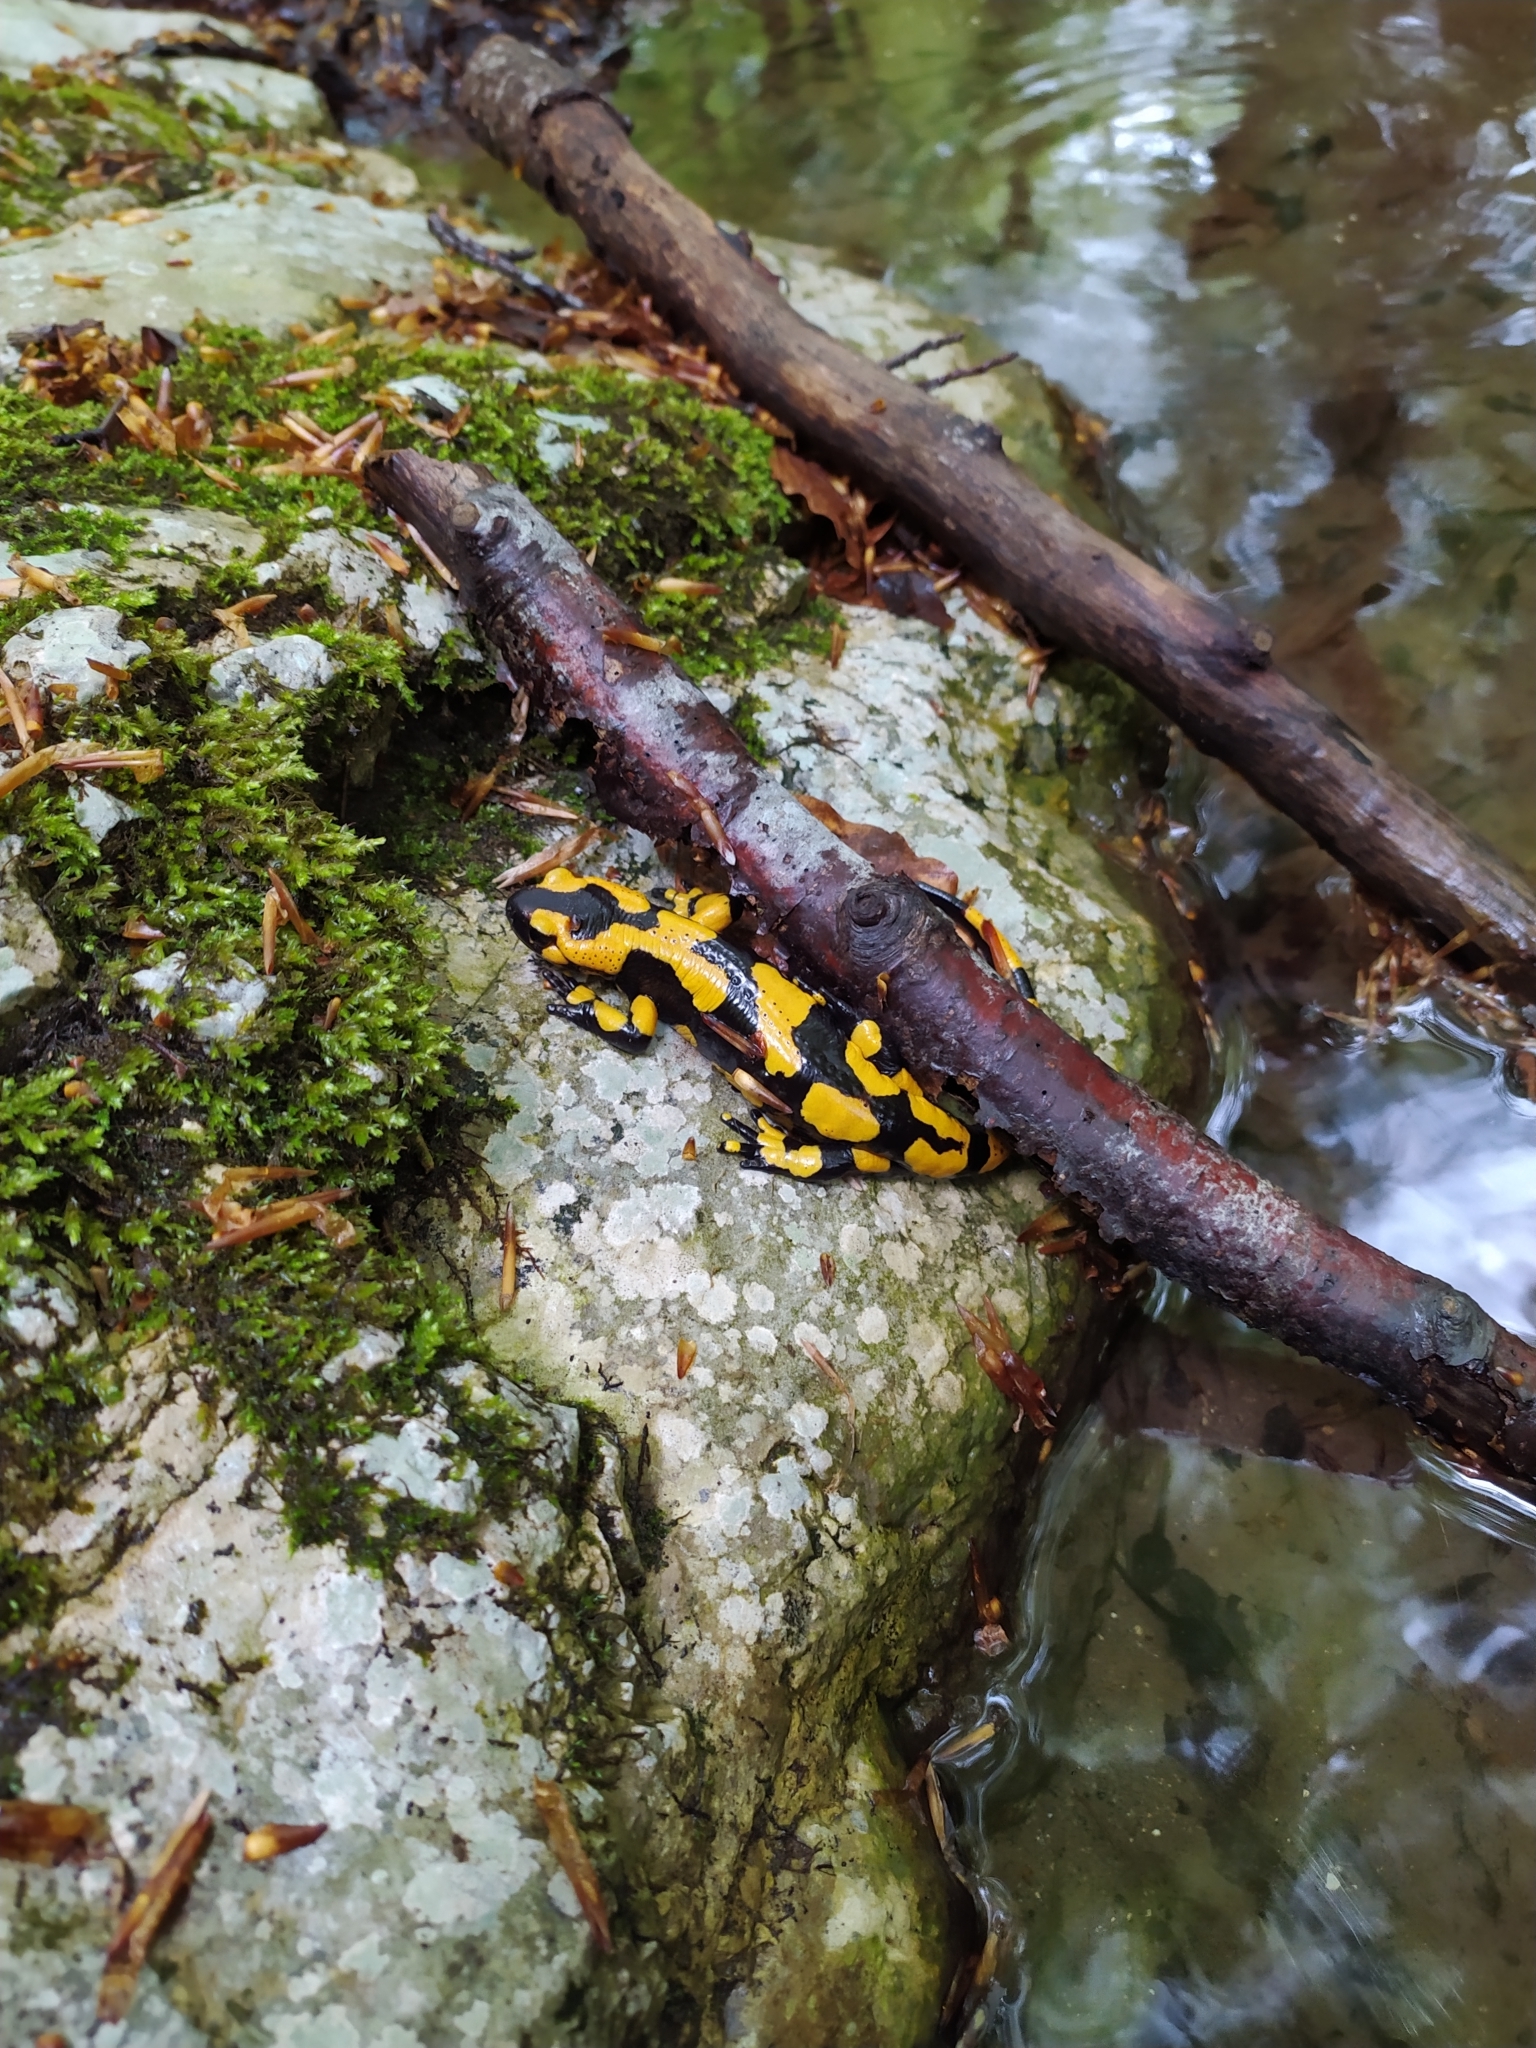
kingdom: Animalia
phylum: Chordata
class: Amphibia
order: Caudata
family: Salamandridae
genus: Salamandra
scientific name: Salamandra salamandra
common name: Fire salamander
